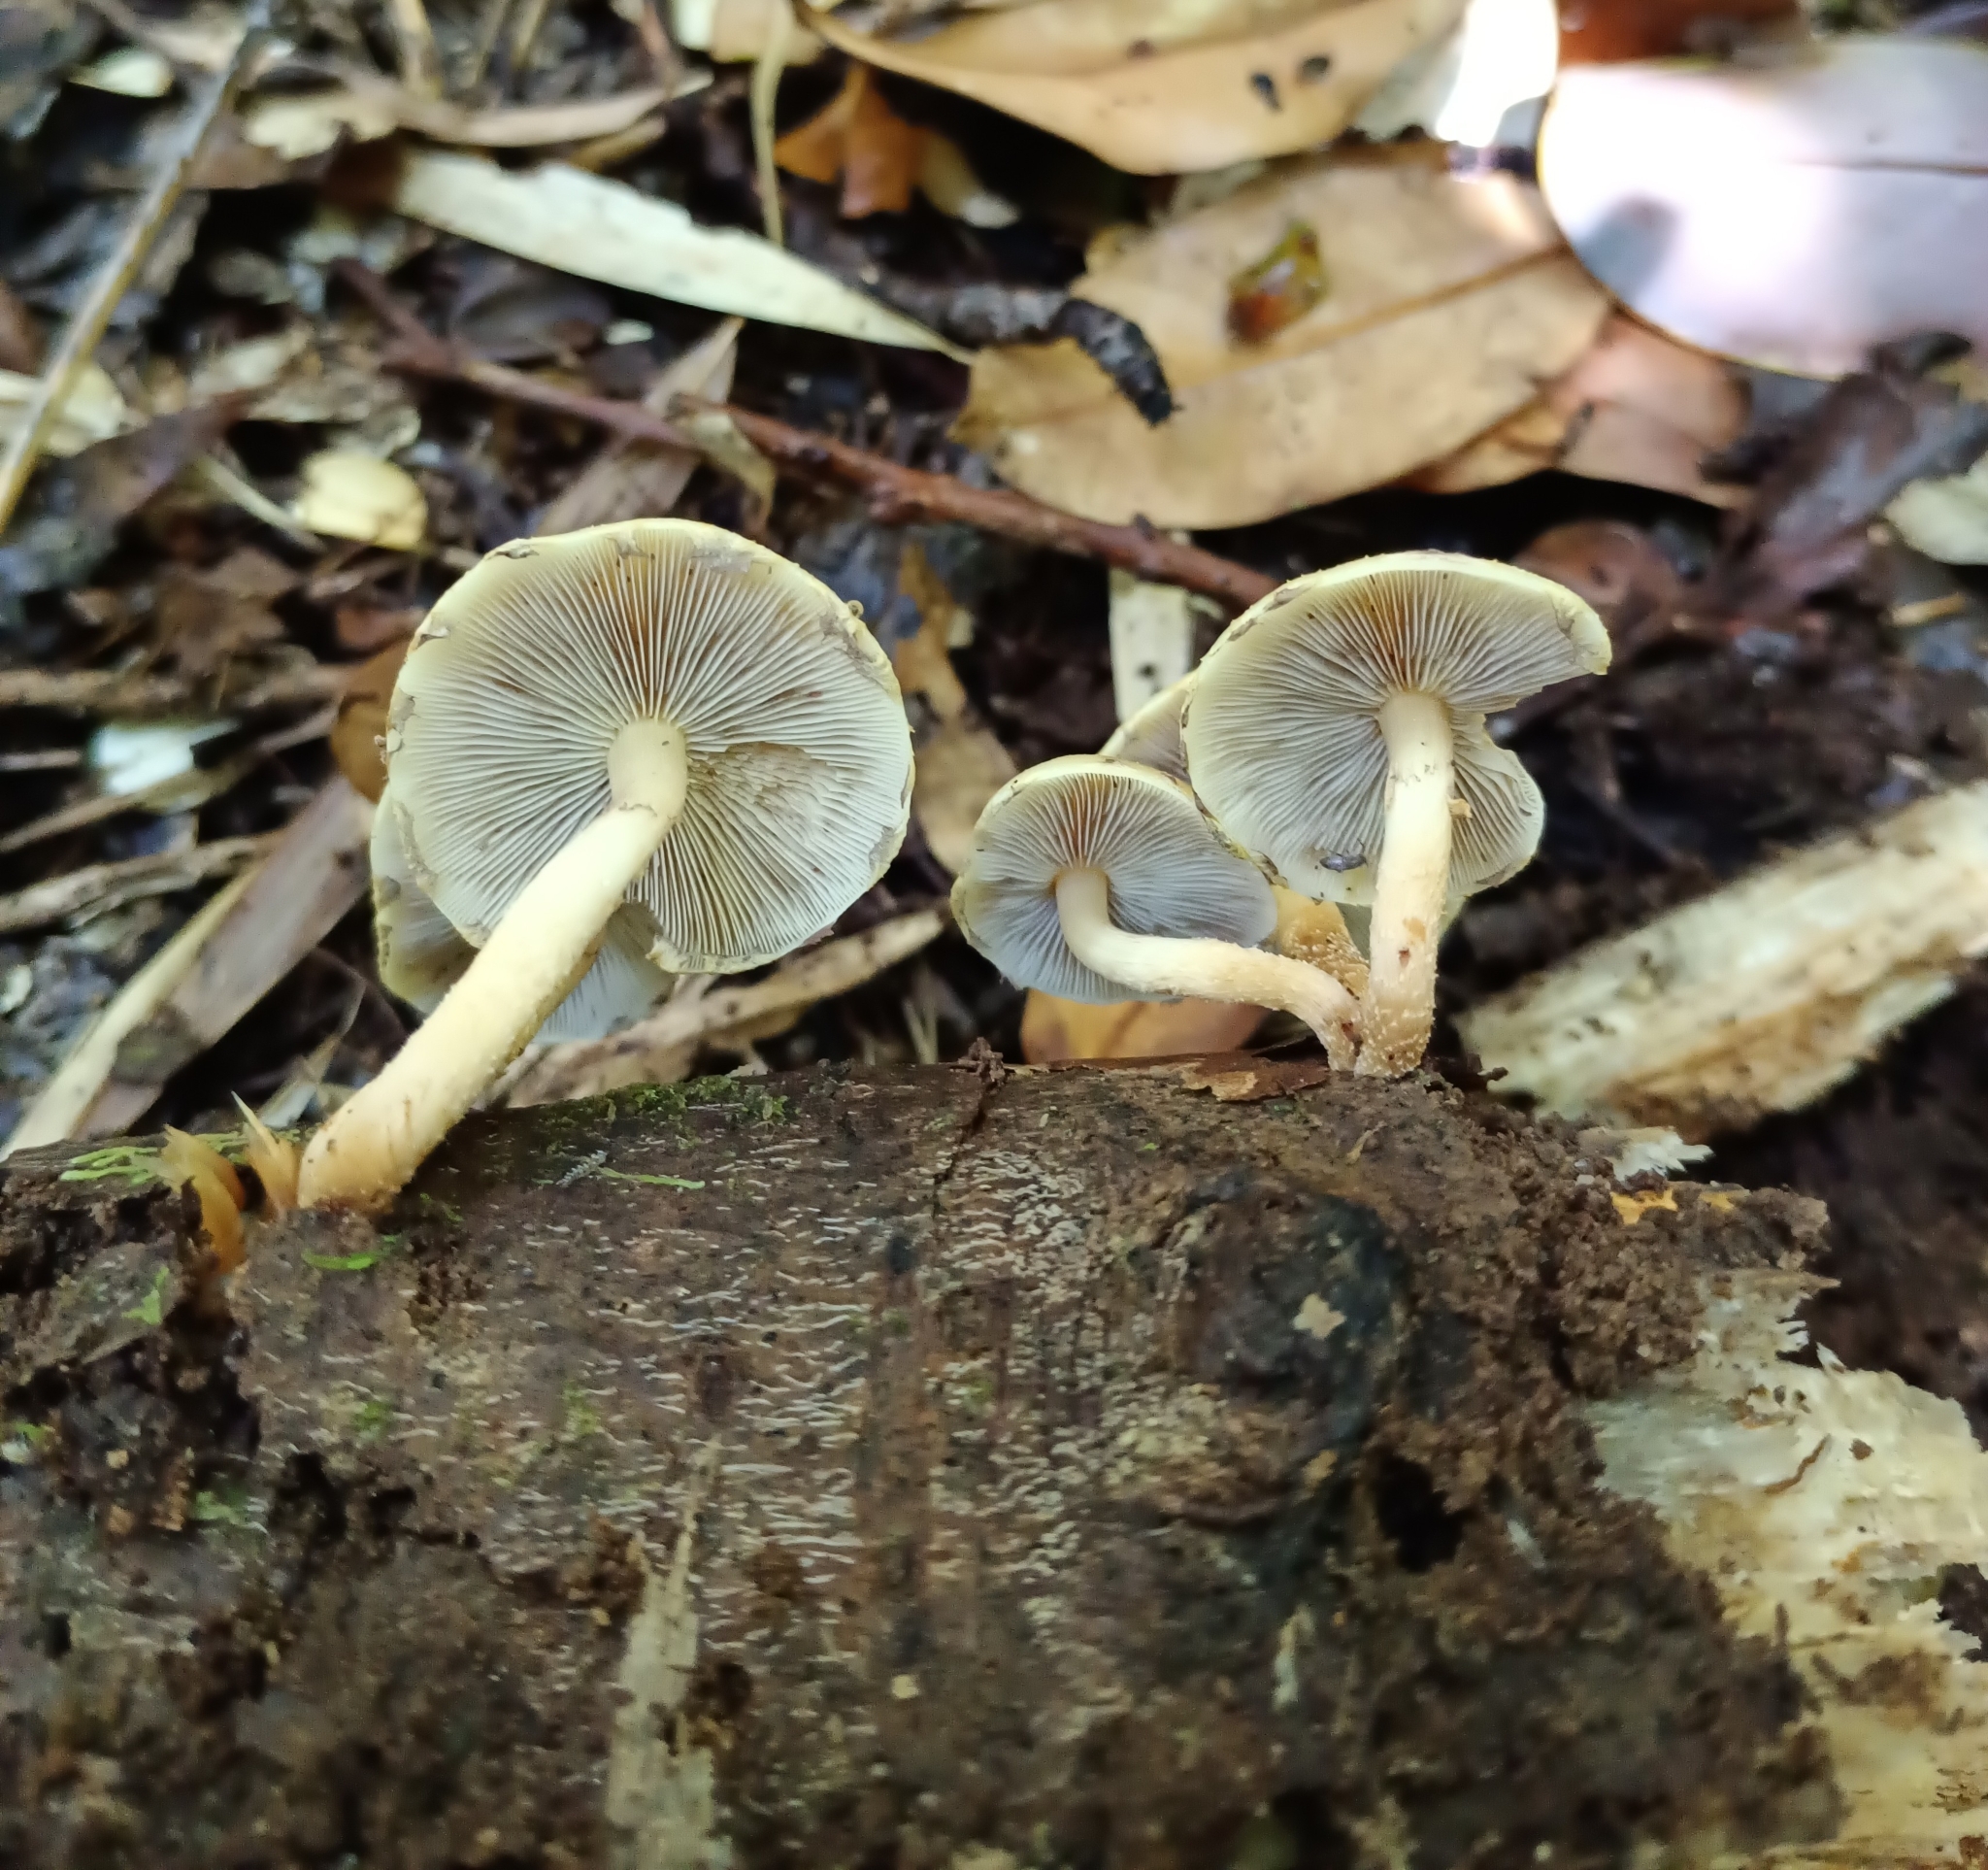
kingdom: Fungi
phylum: Basidiomycota
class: Agaricomycetes
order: Agaricales
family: Strophariaceae
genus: Hypholoma
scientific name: Hypholoma frowardii
